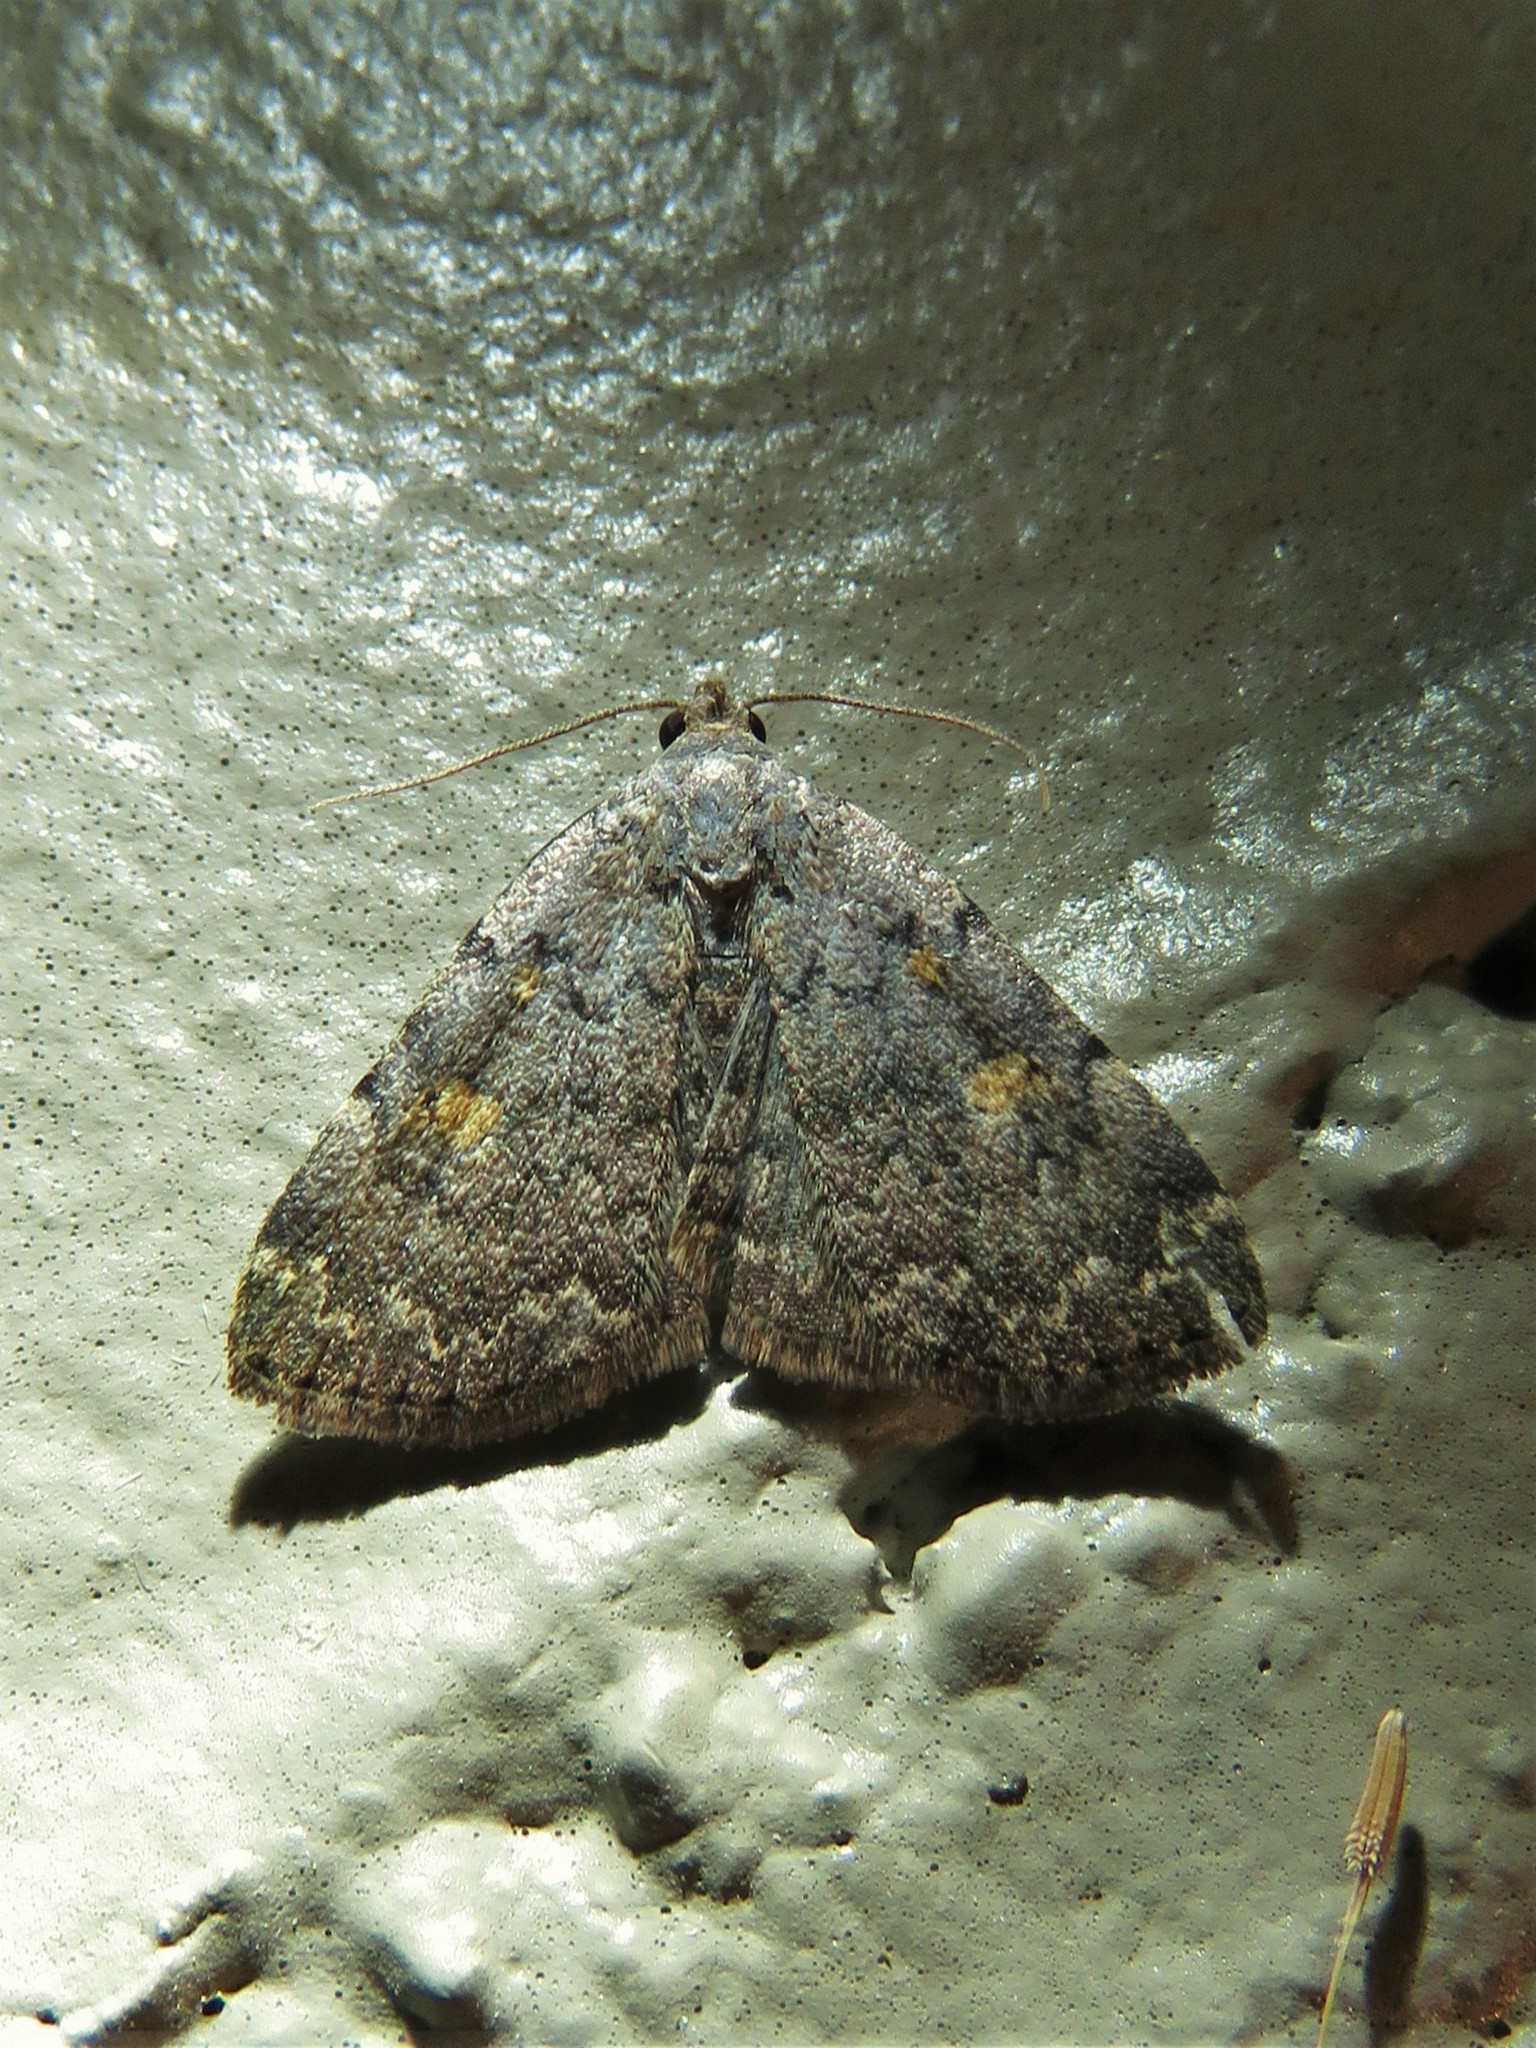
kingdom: Animalia
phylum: Arthropoda
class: Insecta
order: Lepidoptera
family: Erebidae
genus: Idia
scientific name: Idia aemula
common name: Common idia moth
